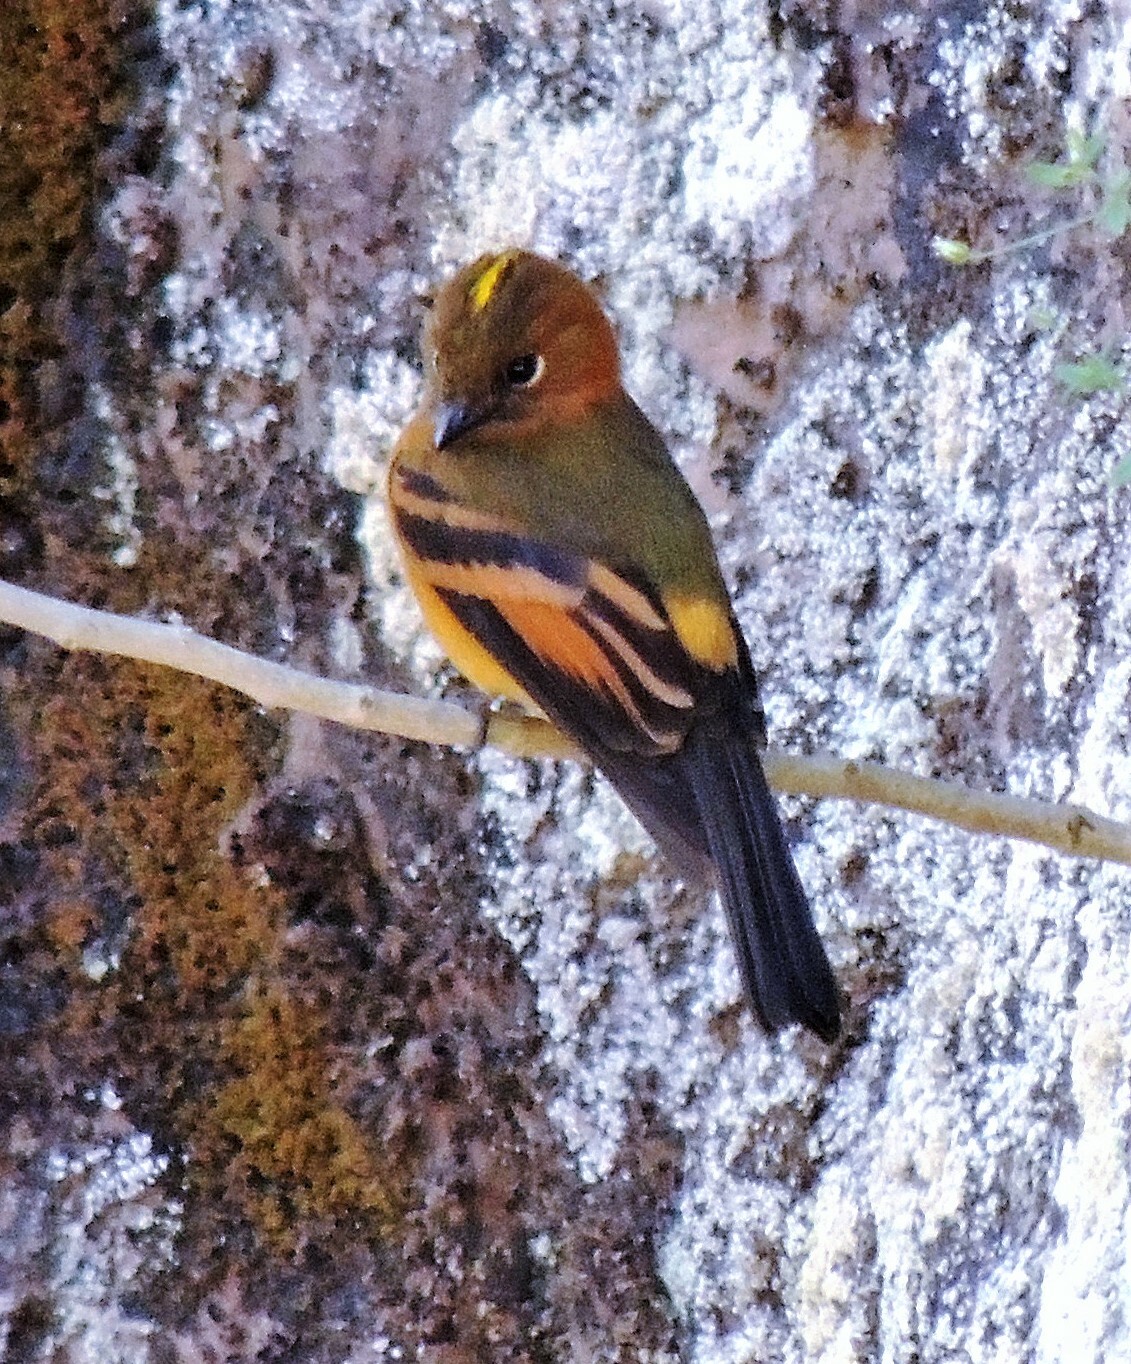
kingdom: Animalia
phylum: Chordata
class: Aves
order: Passeriformes
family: Tyrannidae
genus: Pyrrhomyias
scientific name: Pyrrhomyias cinnamomeus
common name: Cinnamon flycatcher
